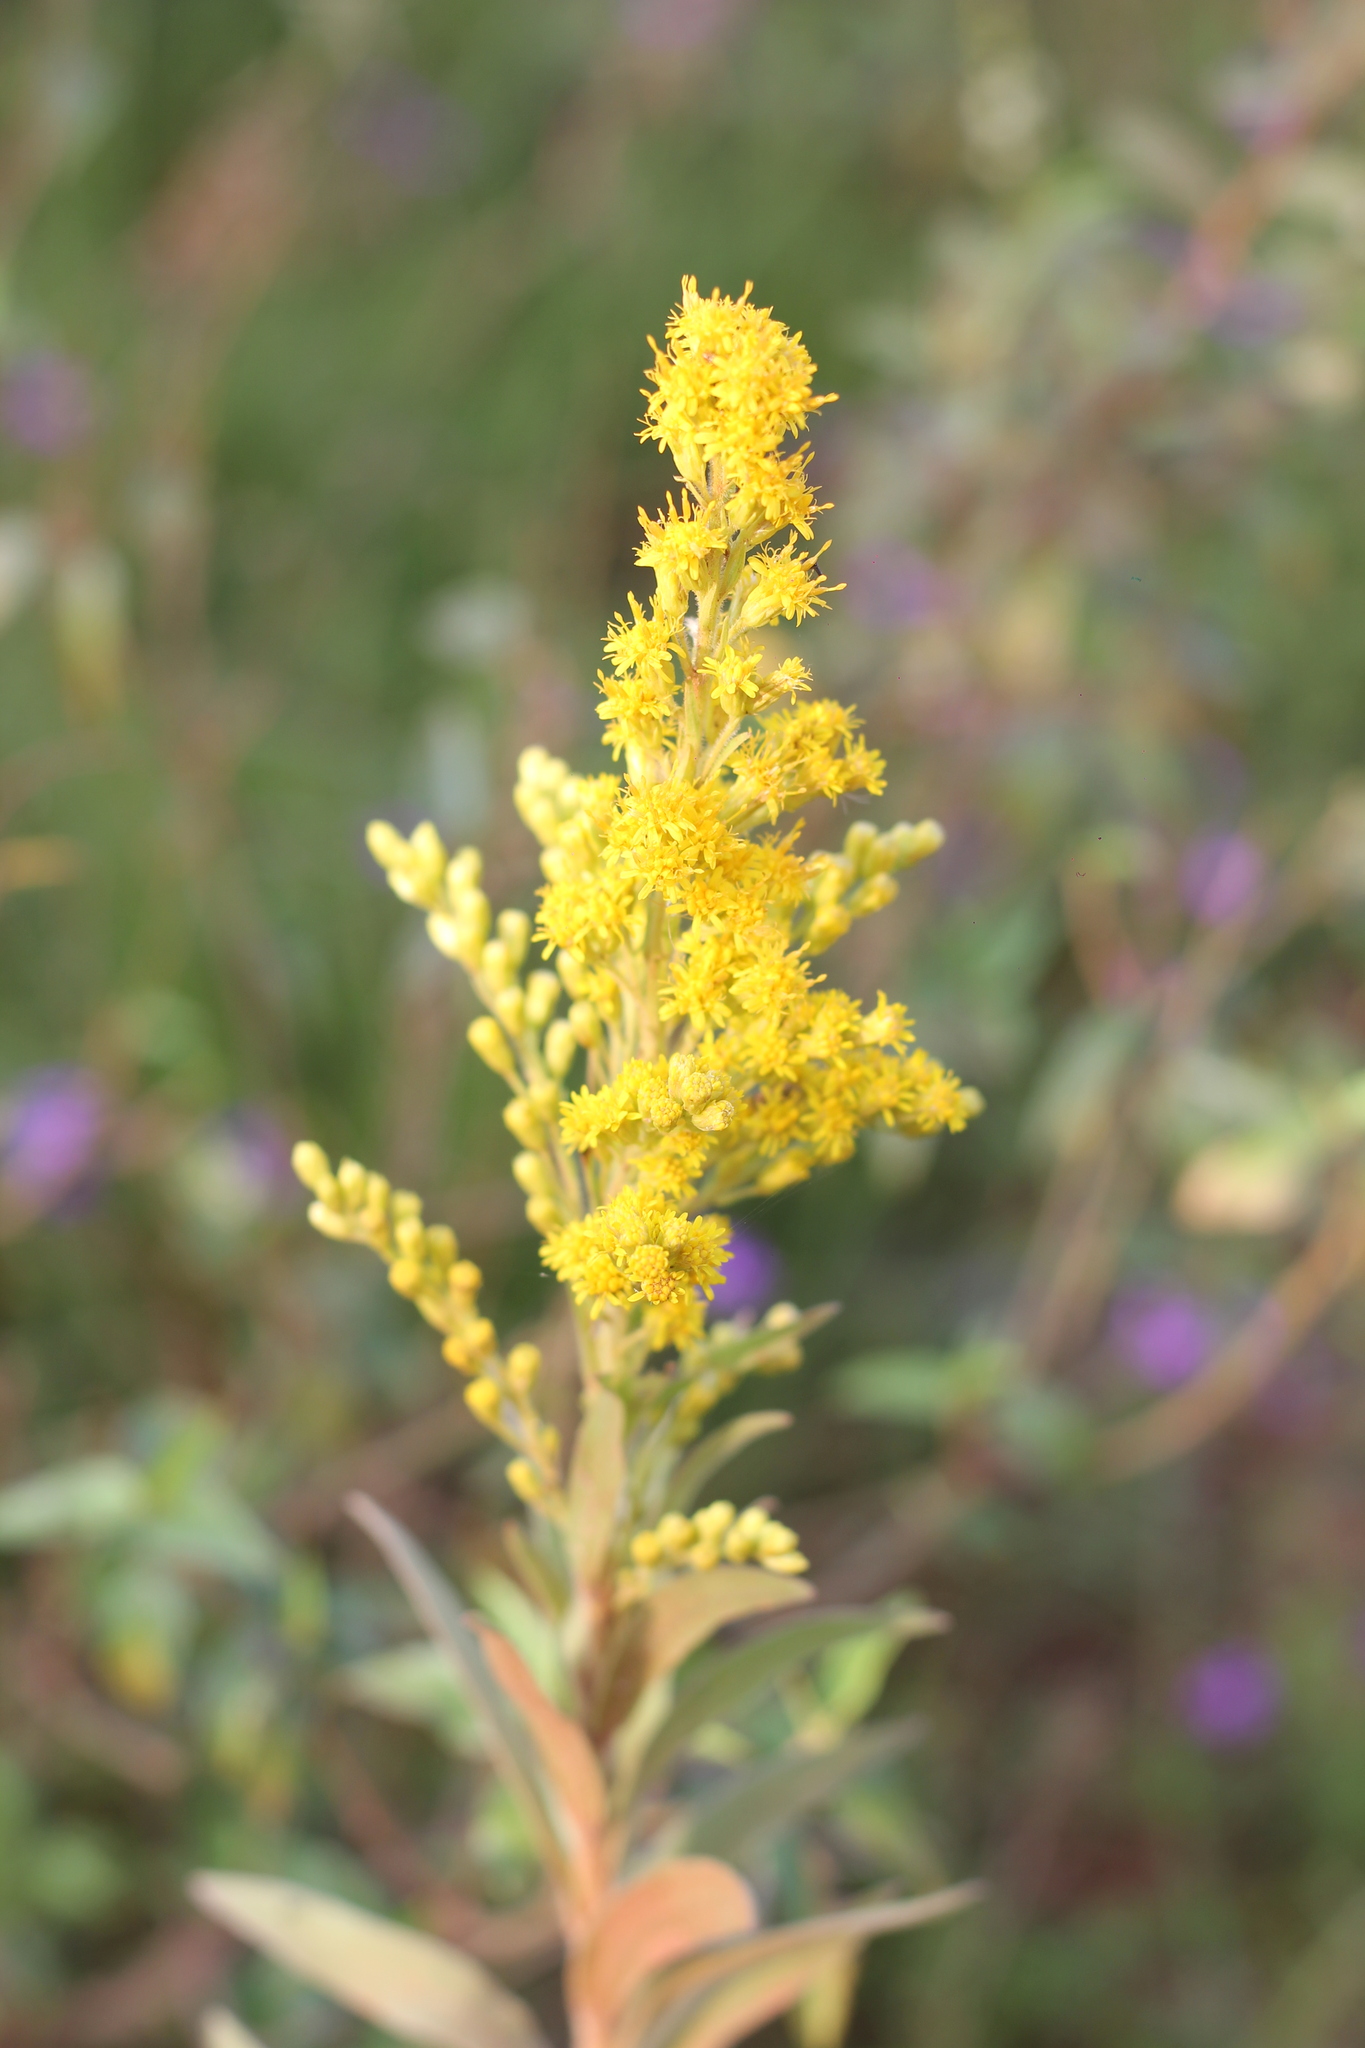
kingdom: Plantae
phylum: Tracheophyta
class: Magnoliopsida
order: Asterales
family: Asteraceae
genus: Solidago
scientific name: Solidago chilensis
